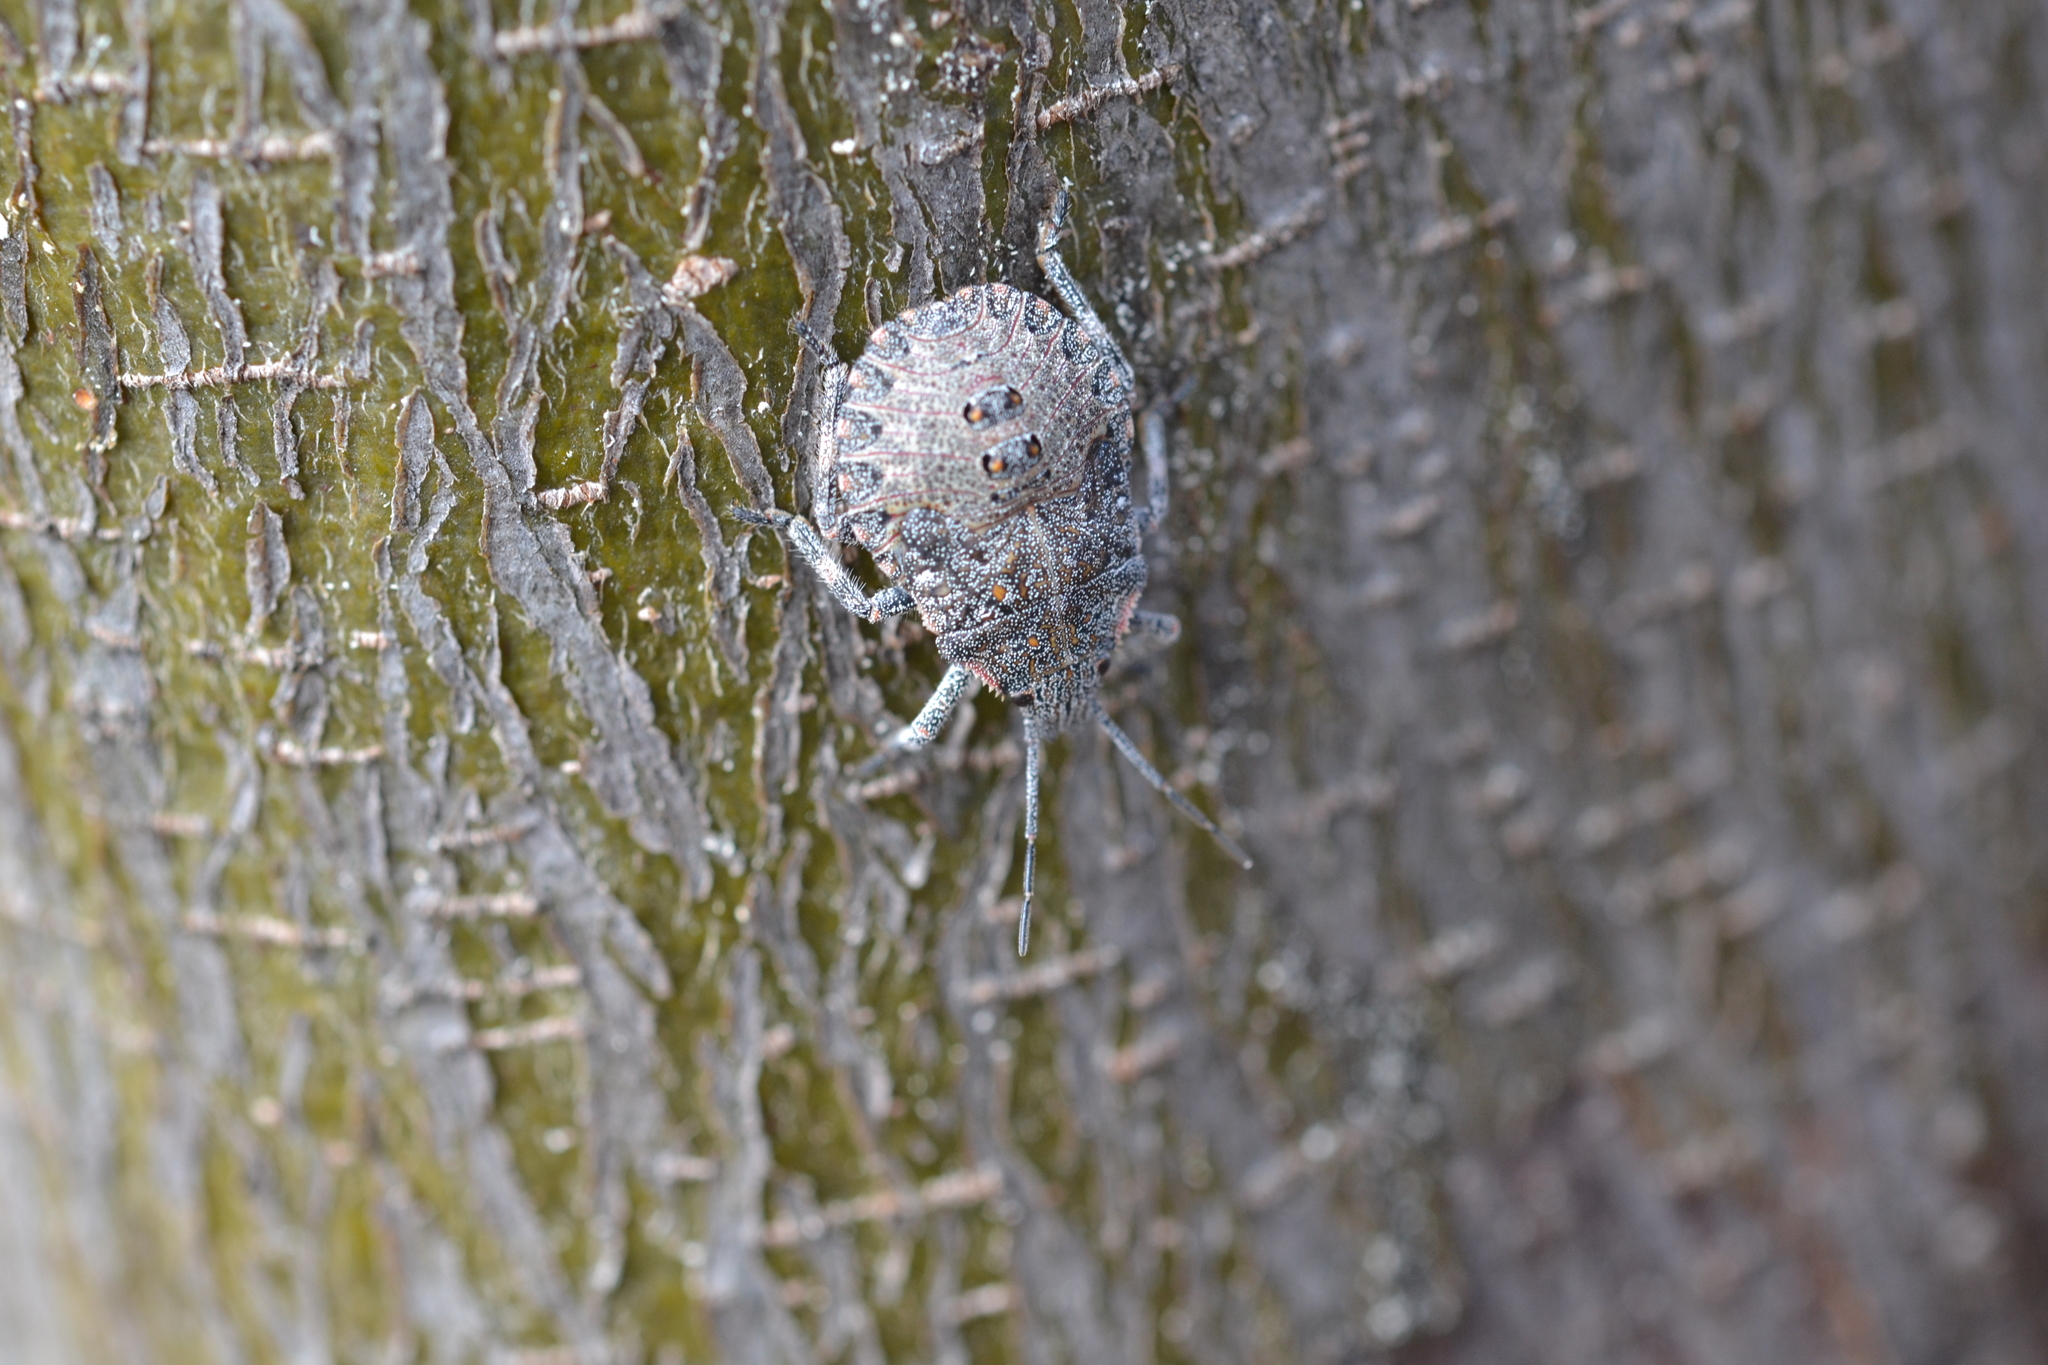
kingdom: Animalia
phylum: Arthropoda
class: Insecta
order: Hemiptera
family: Pentatomidae
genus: Brochymena
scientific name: Brochymena quadripustulata
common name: Four-humped stink bug
